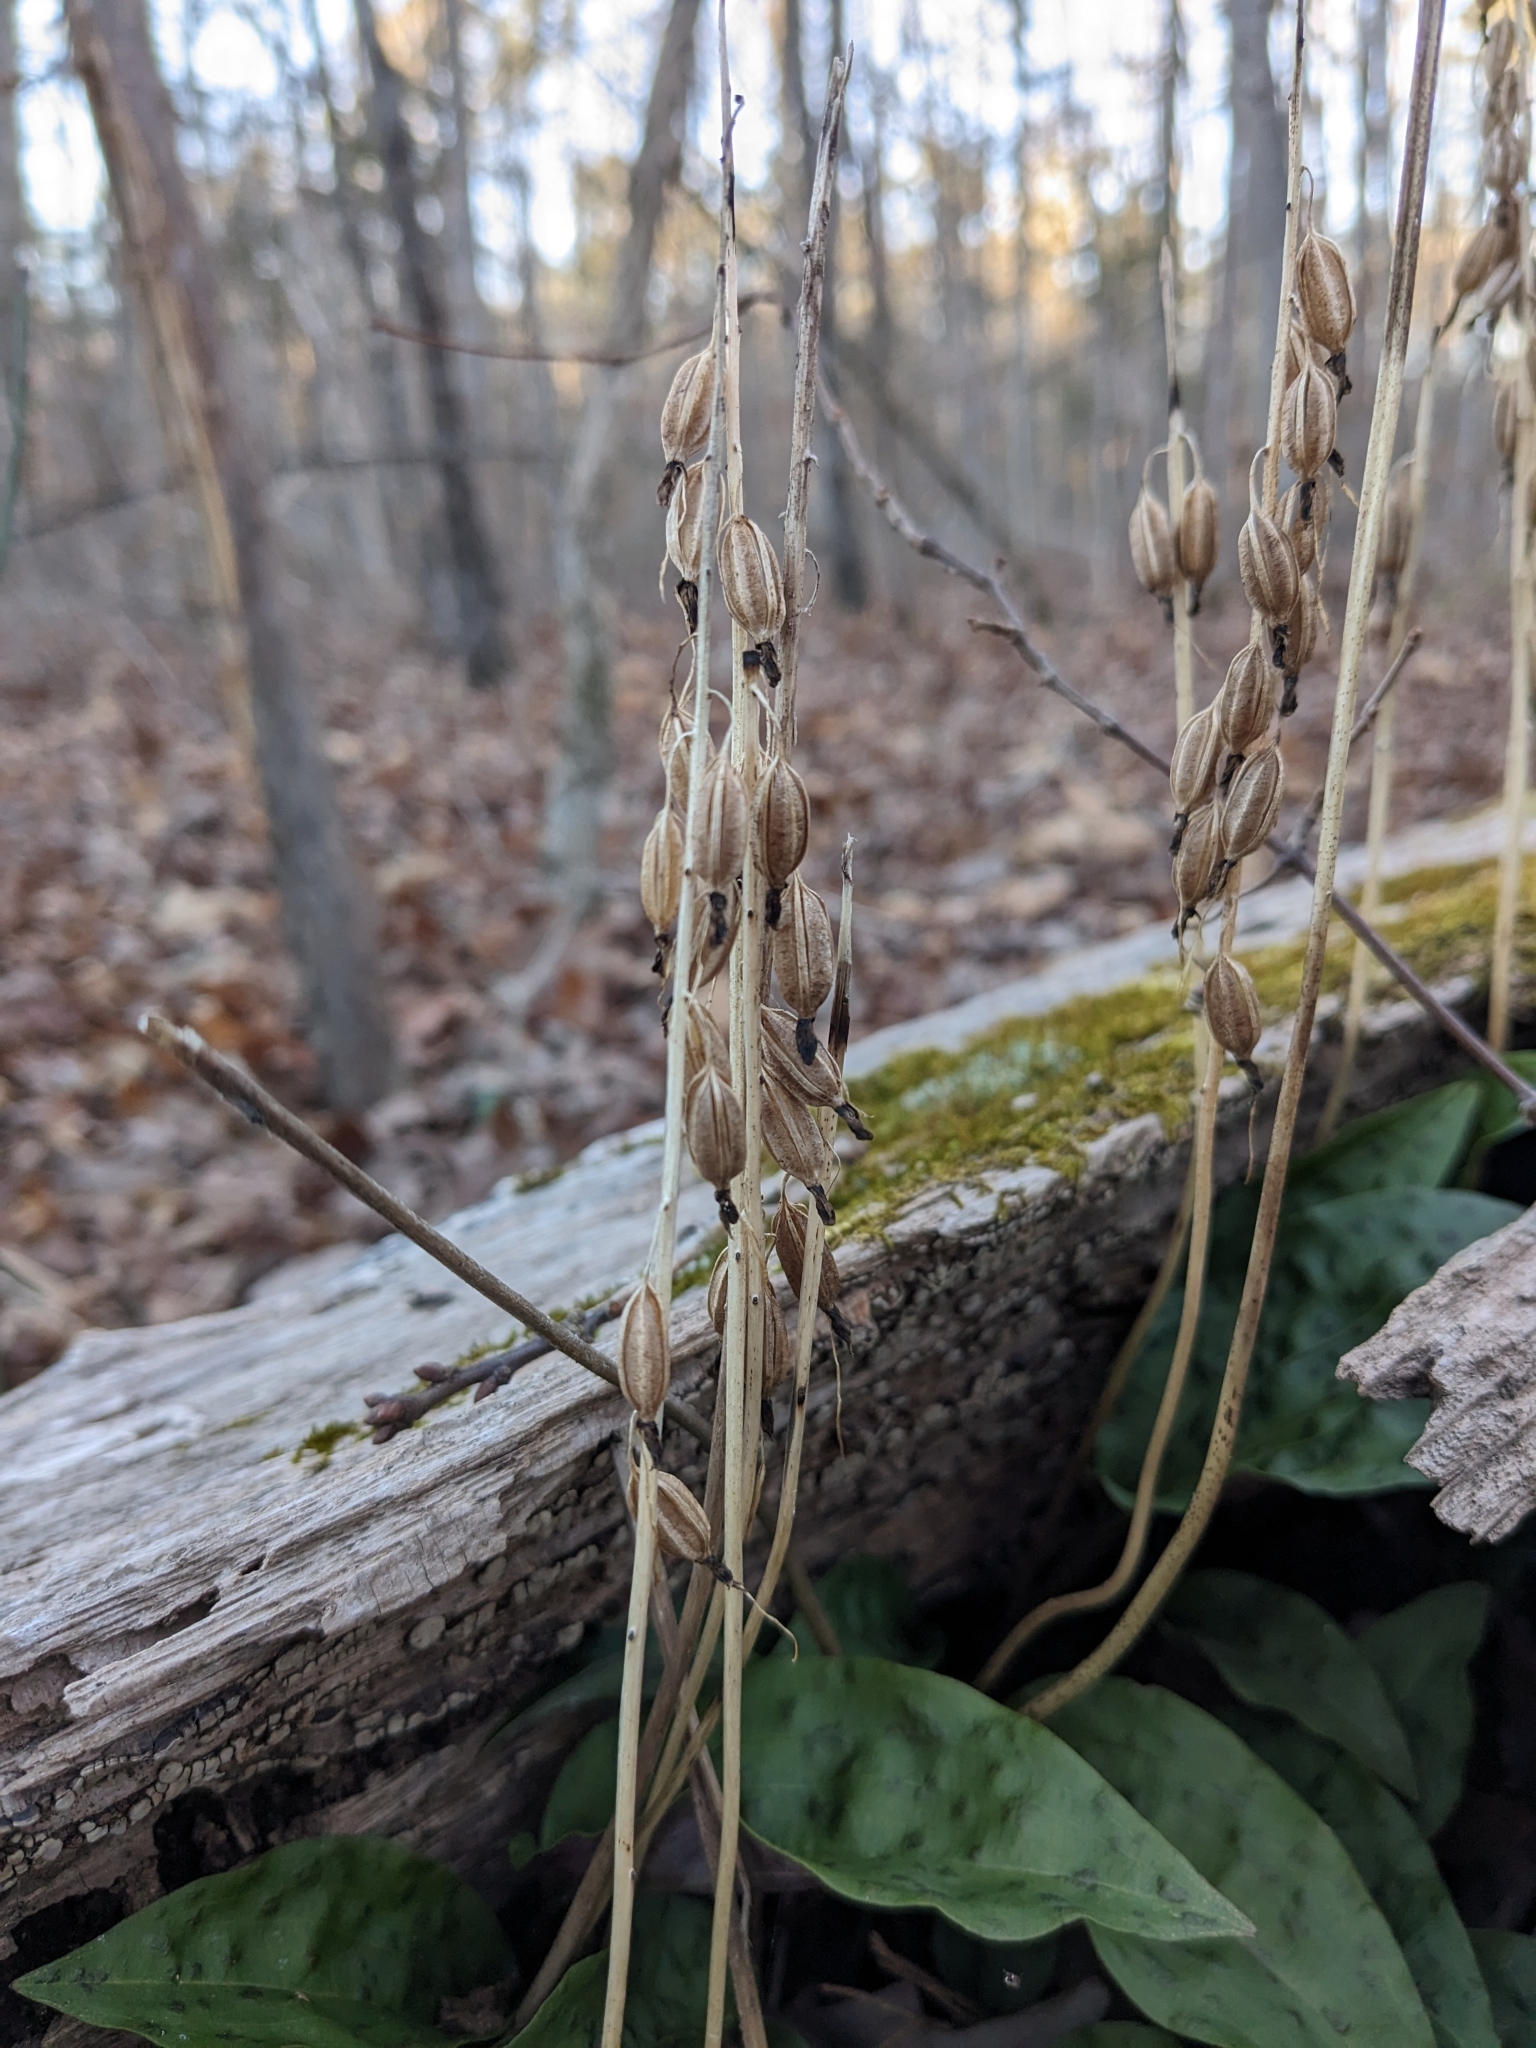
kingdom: Plantae
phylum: Tracheophyta
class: Liliopsida
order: Asparagales
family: Orchidaceae
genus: Tipularia
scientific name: Tipularia discolor
